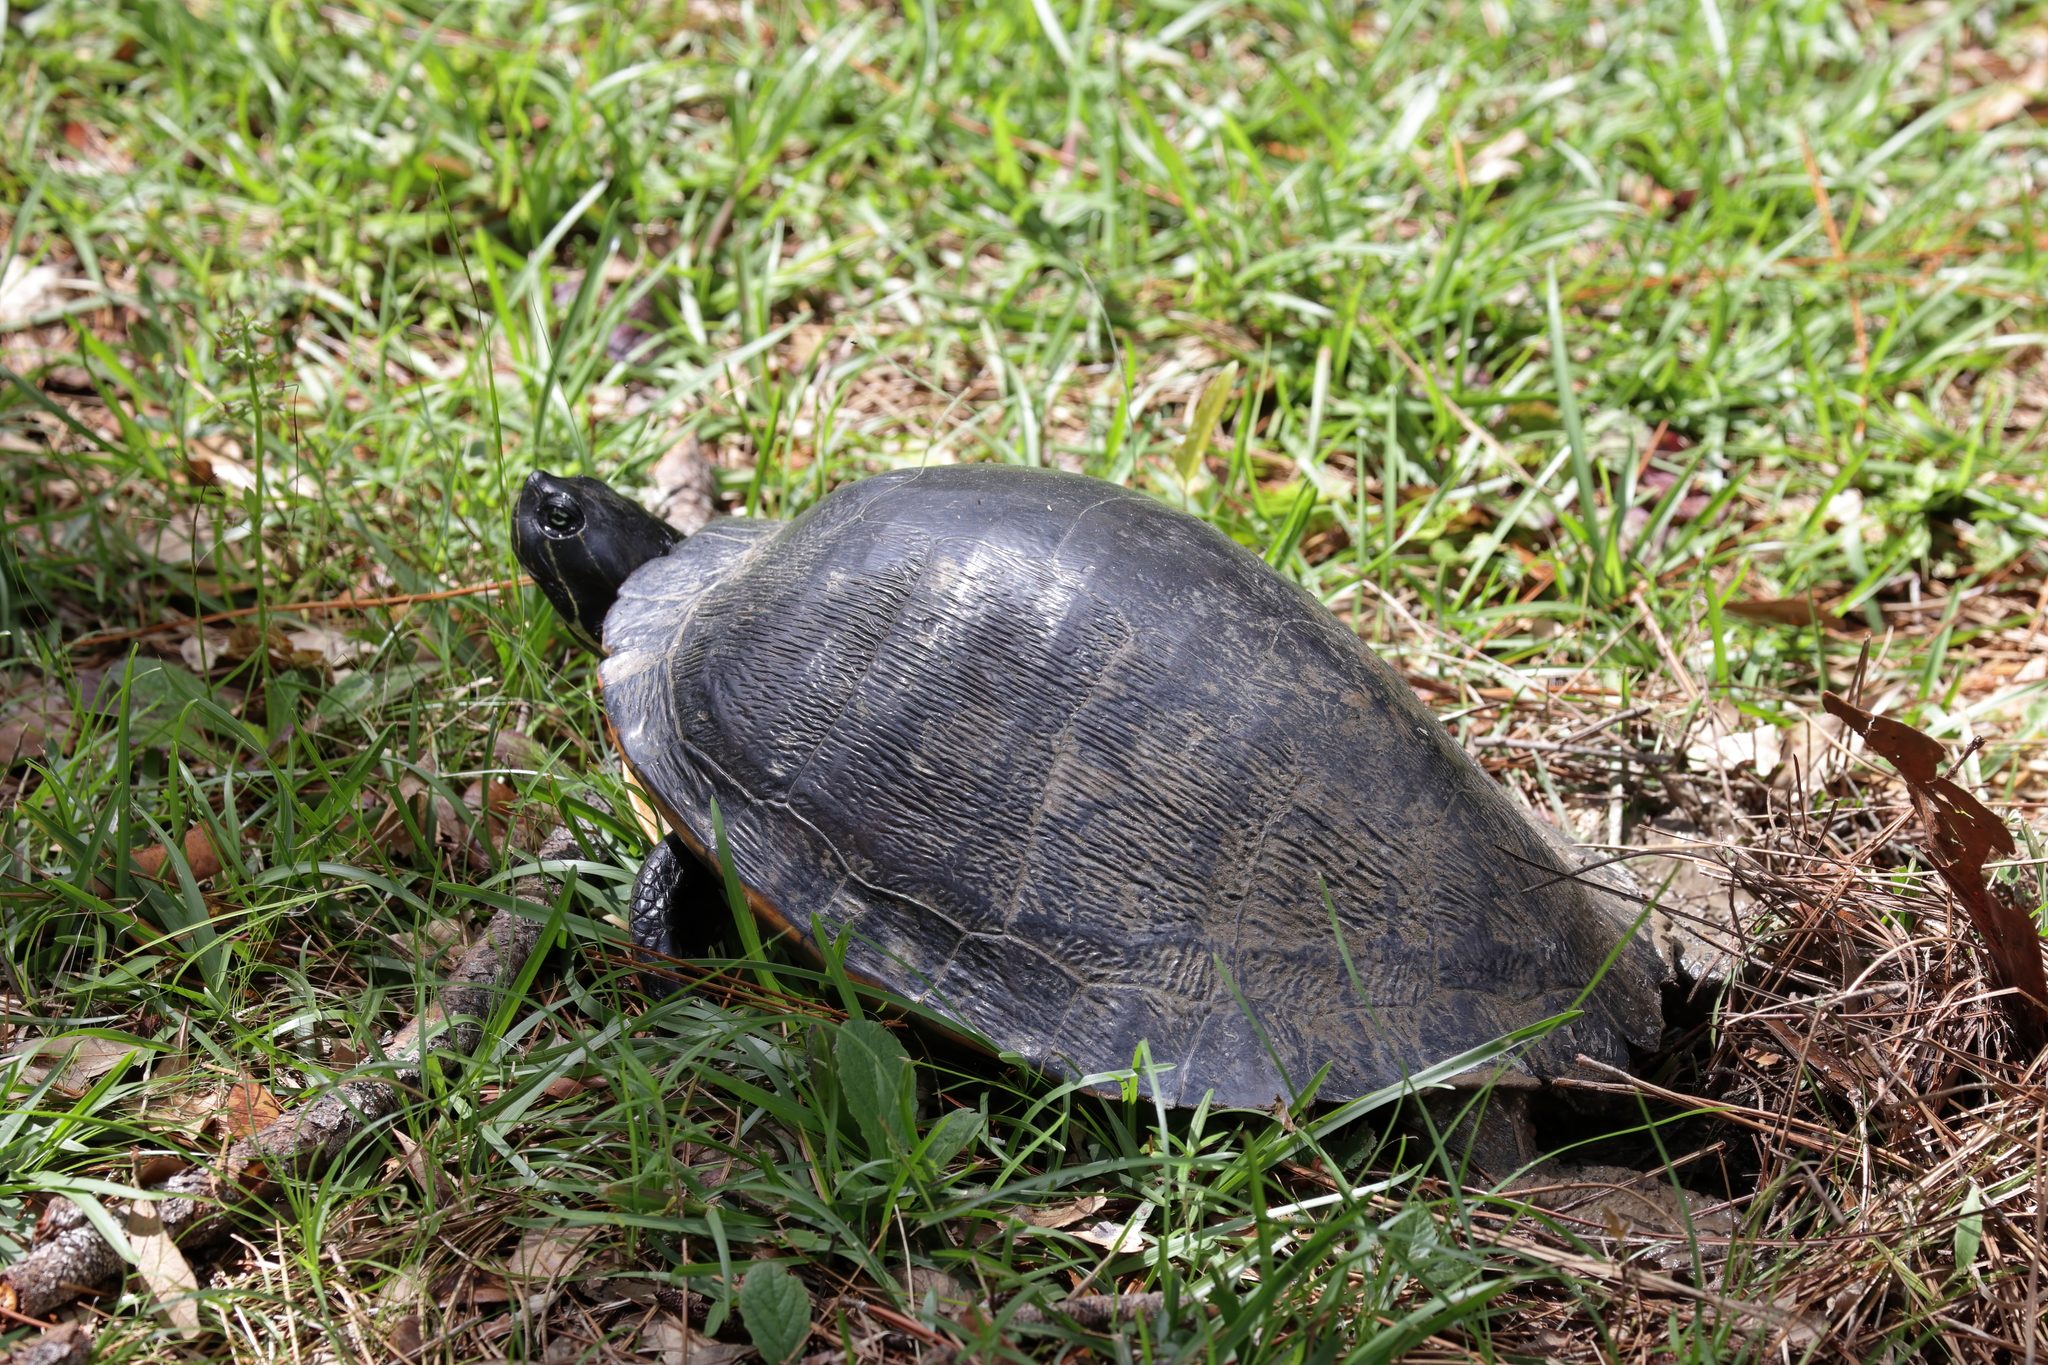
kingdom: Animalia
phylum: Chordata
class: Testudines
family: Emydidae
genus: Pseudemys
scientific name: Pseudemys alabamensis
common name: Alabama red-bellied turtle
